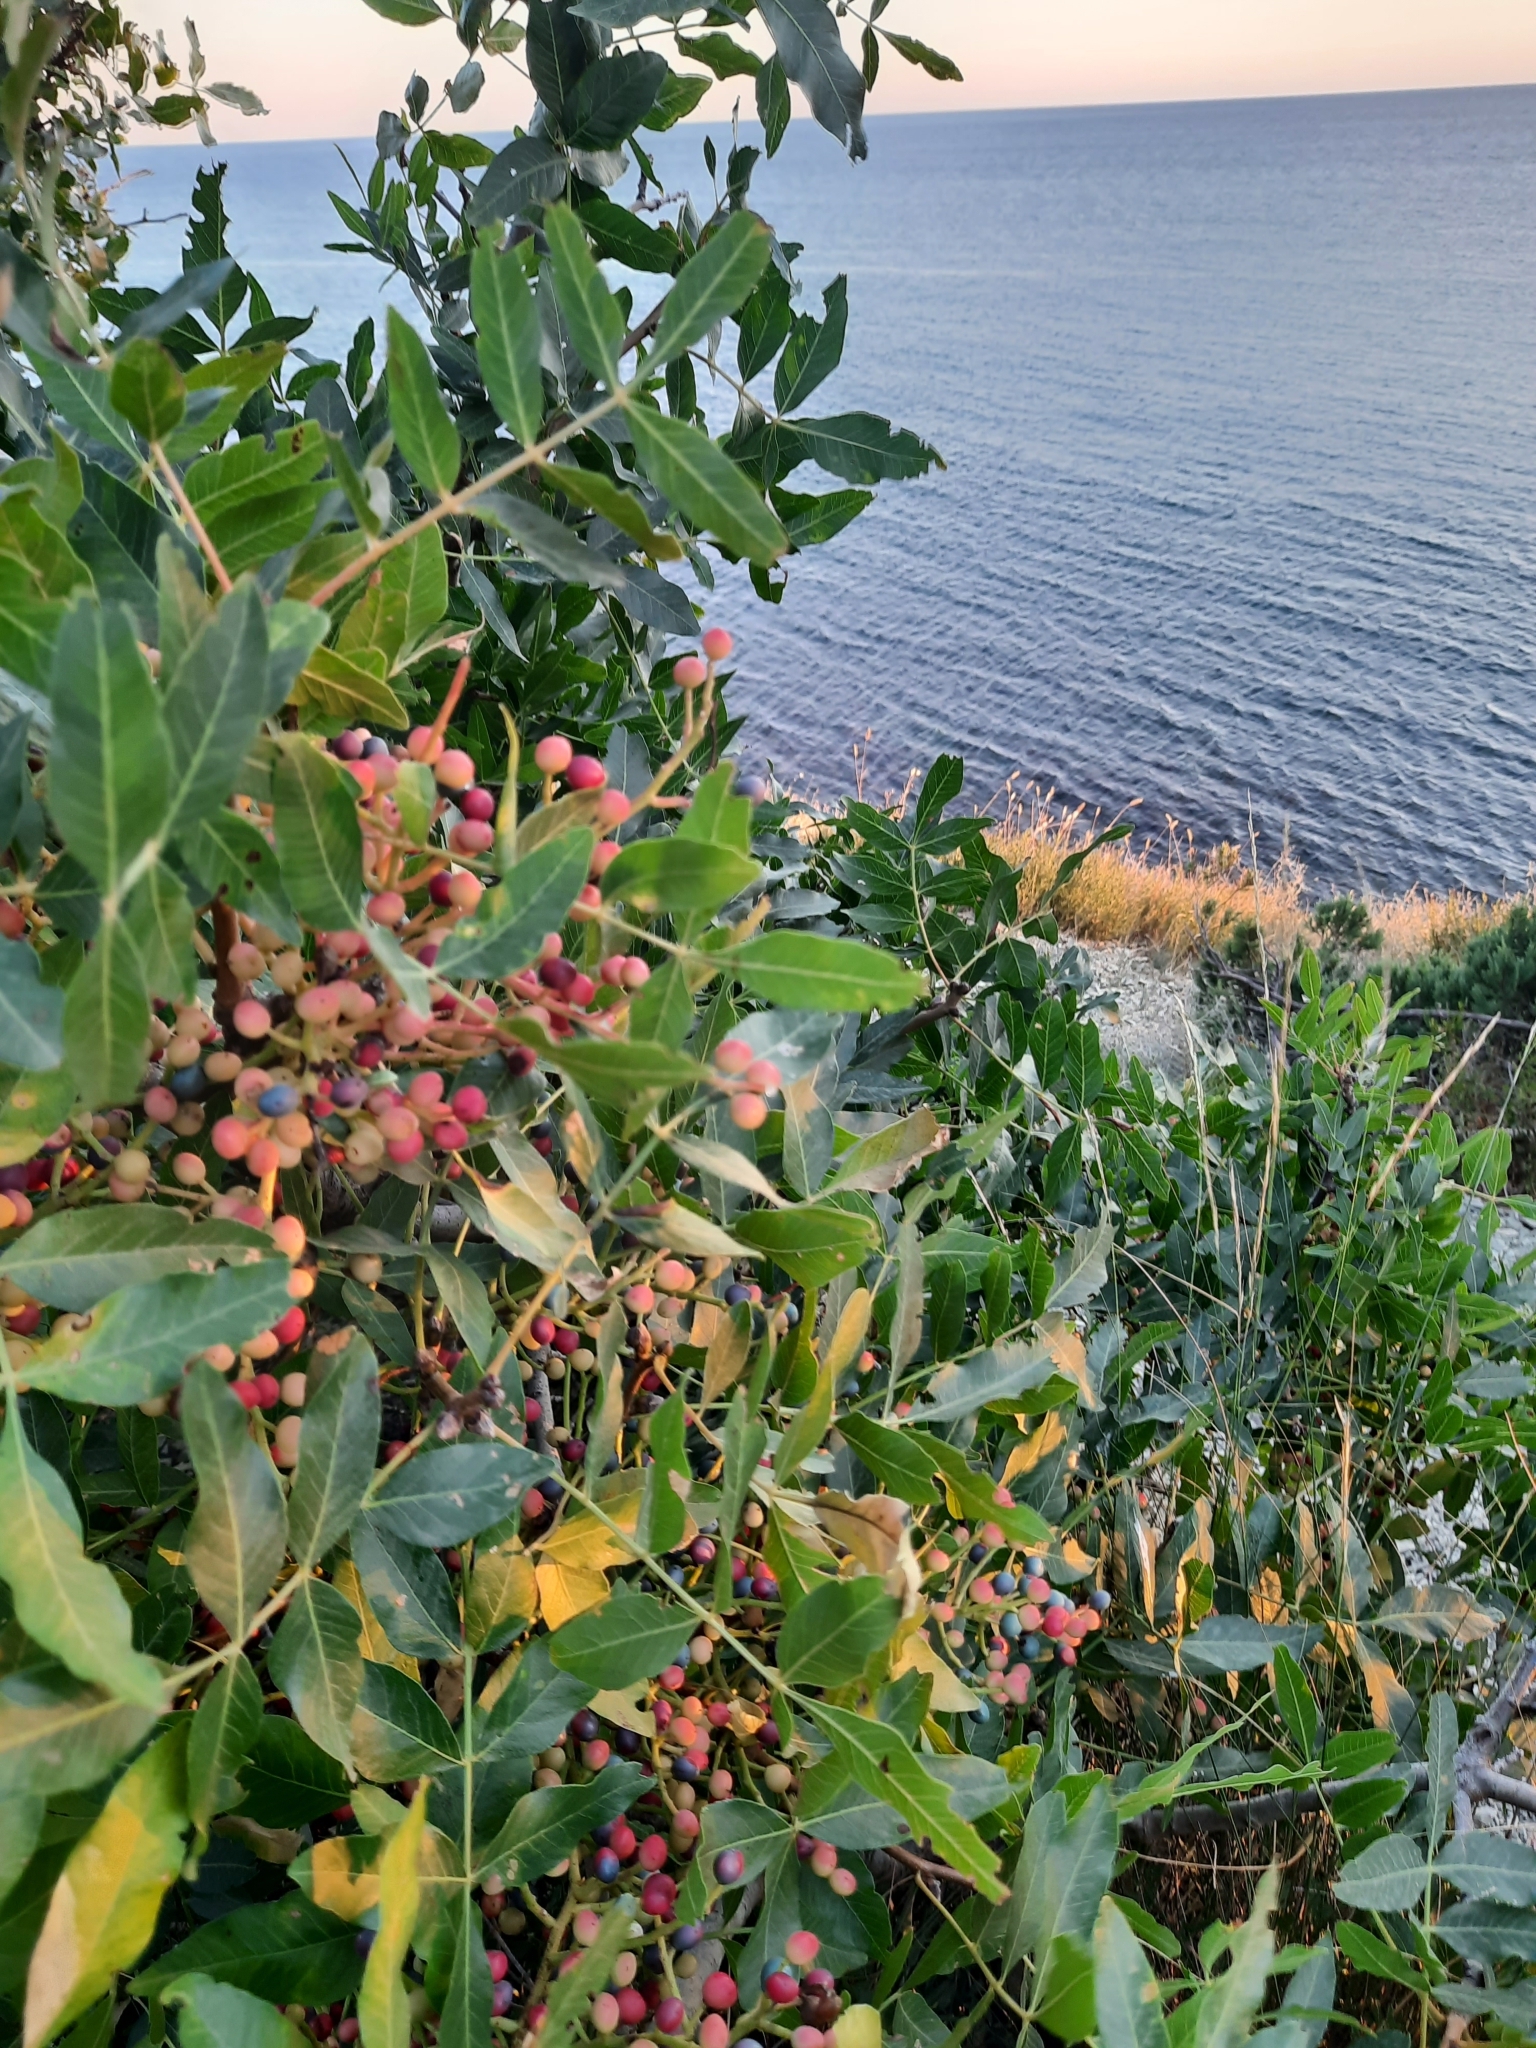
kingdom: Plantae
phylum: Tracheophyta
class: Magnoliopsida
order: Sapindales
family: Anacardiaceae
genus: Pistacia
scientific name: Pistacia atlantica
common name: Mt. atlas mastic tree
